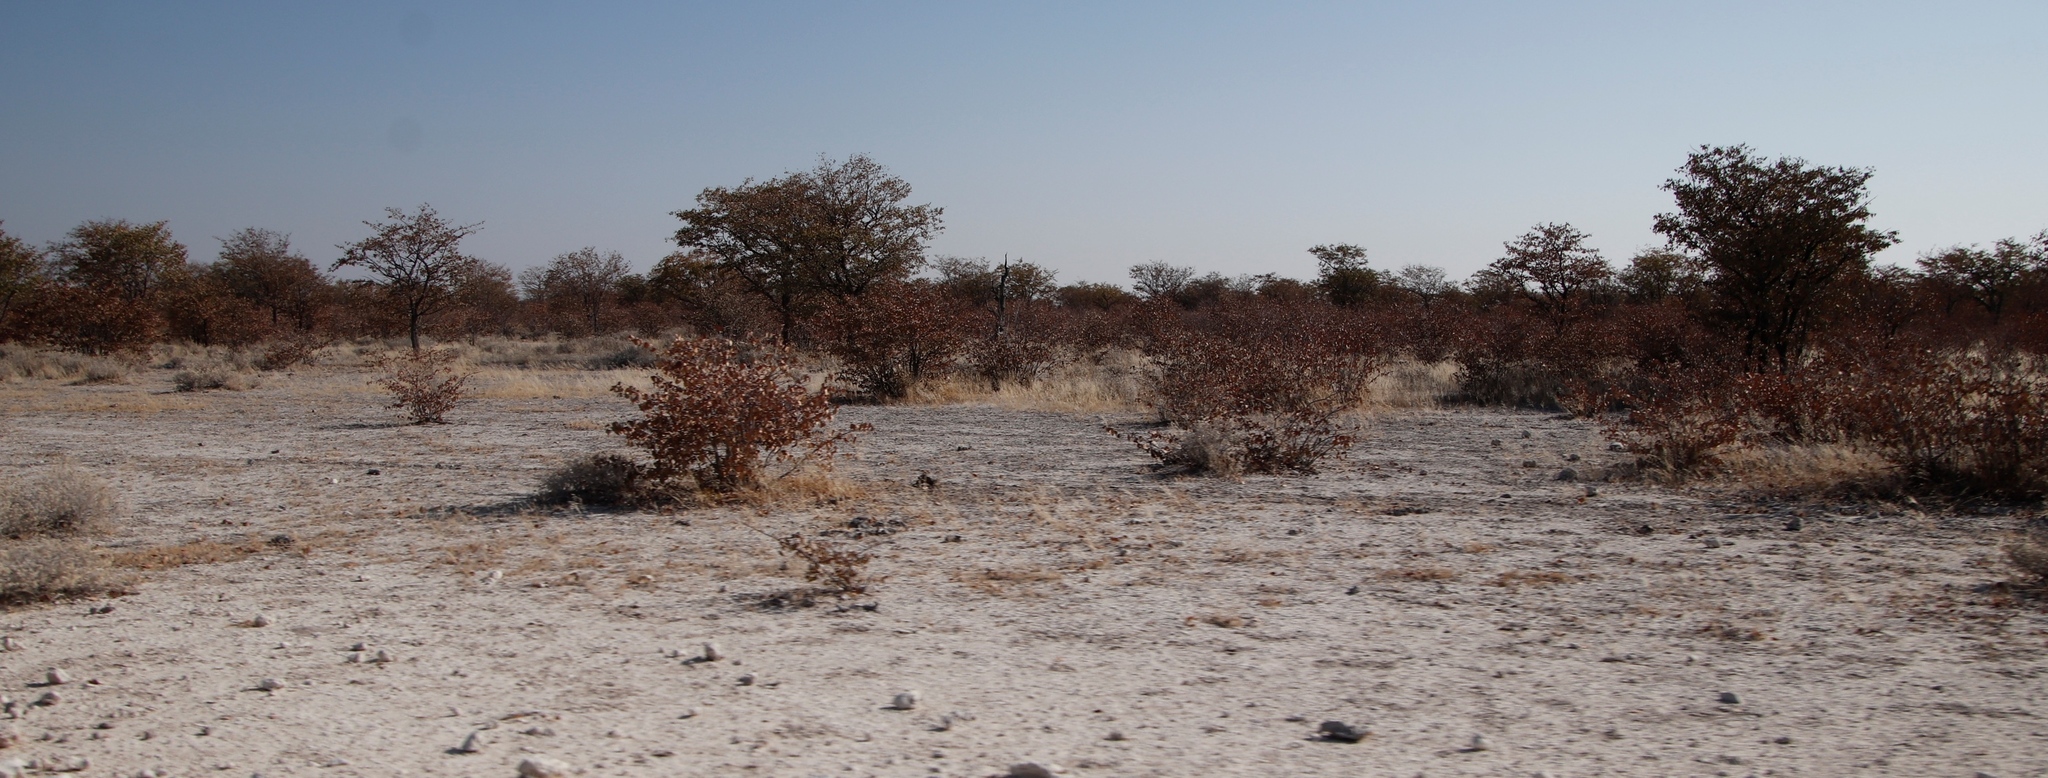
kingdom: Plantae
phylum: Tracheophyta
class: Magnoliopsida
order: Fabales
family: Fabaceae
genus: Colophospermum
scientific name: Colophospermum mopane
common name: Mopane
